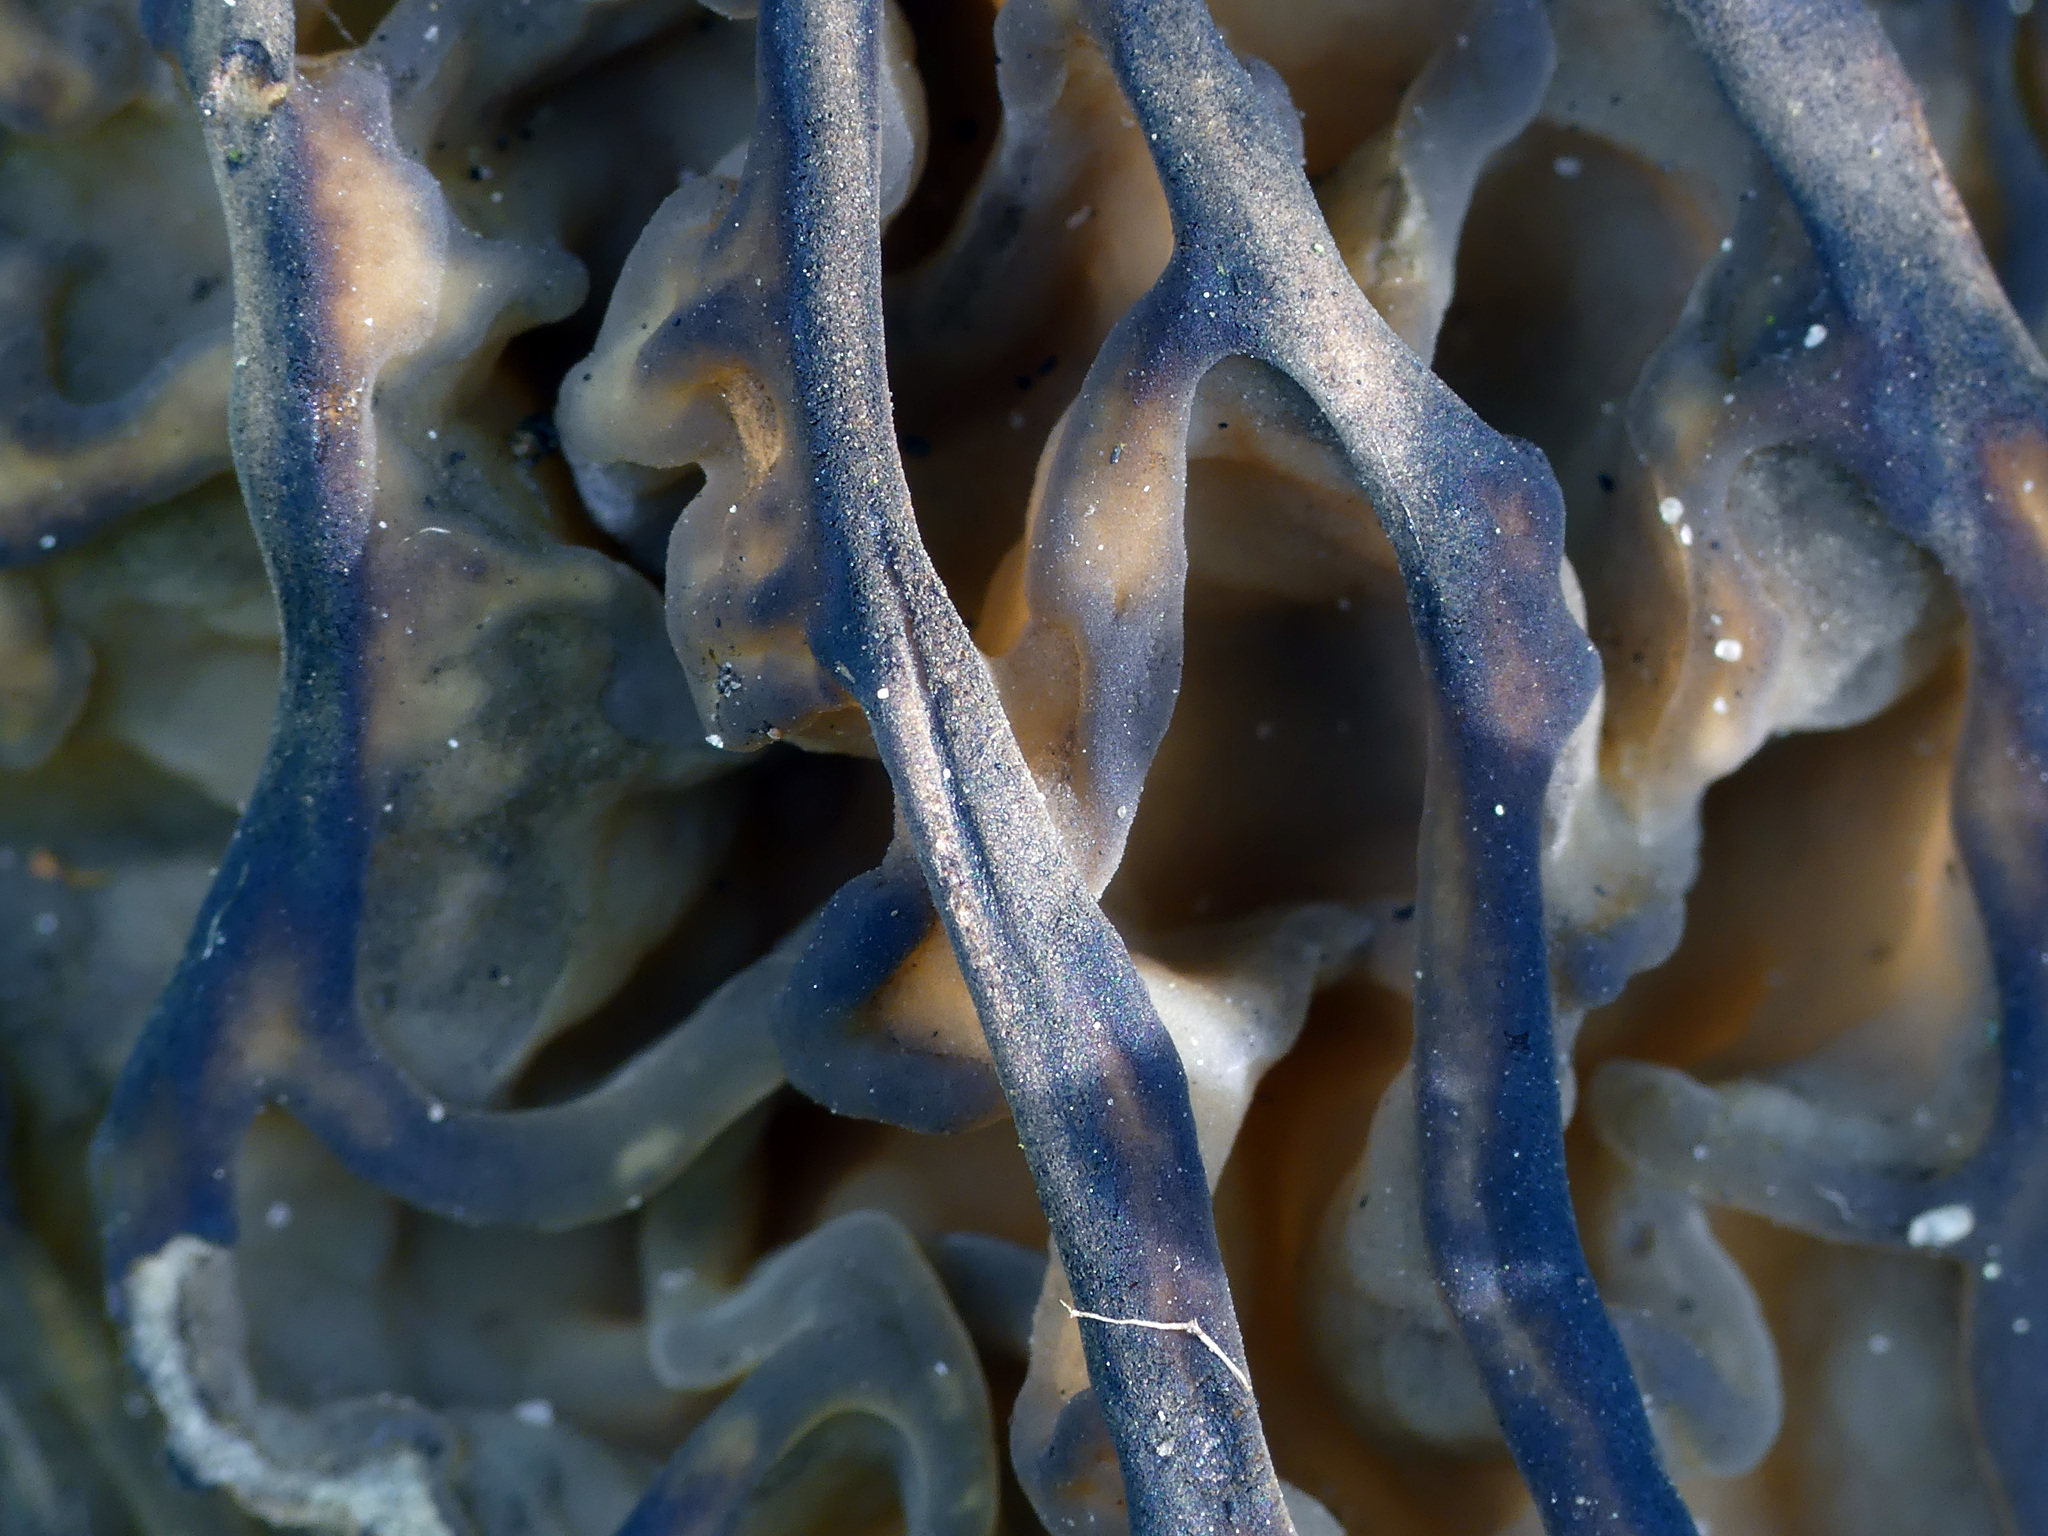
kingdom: Fungi
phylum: Ascomycota
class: Pezizomycetes
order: Pezizales
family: Morchellaceae
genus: Morchella
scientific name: Morchella semilibera
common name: Semifree morel
